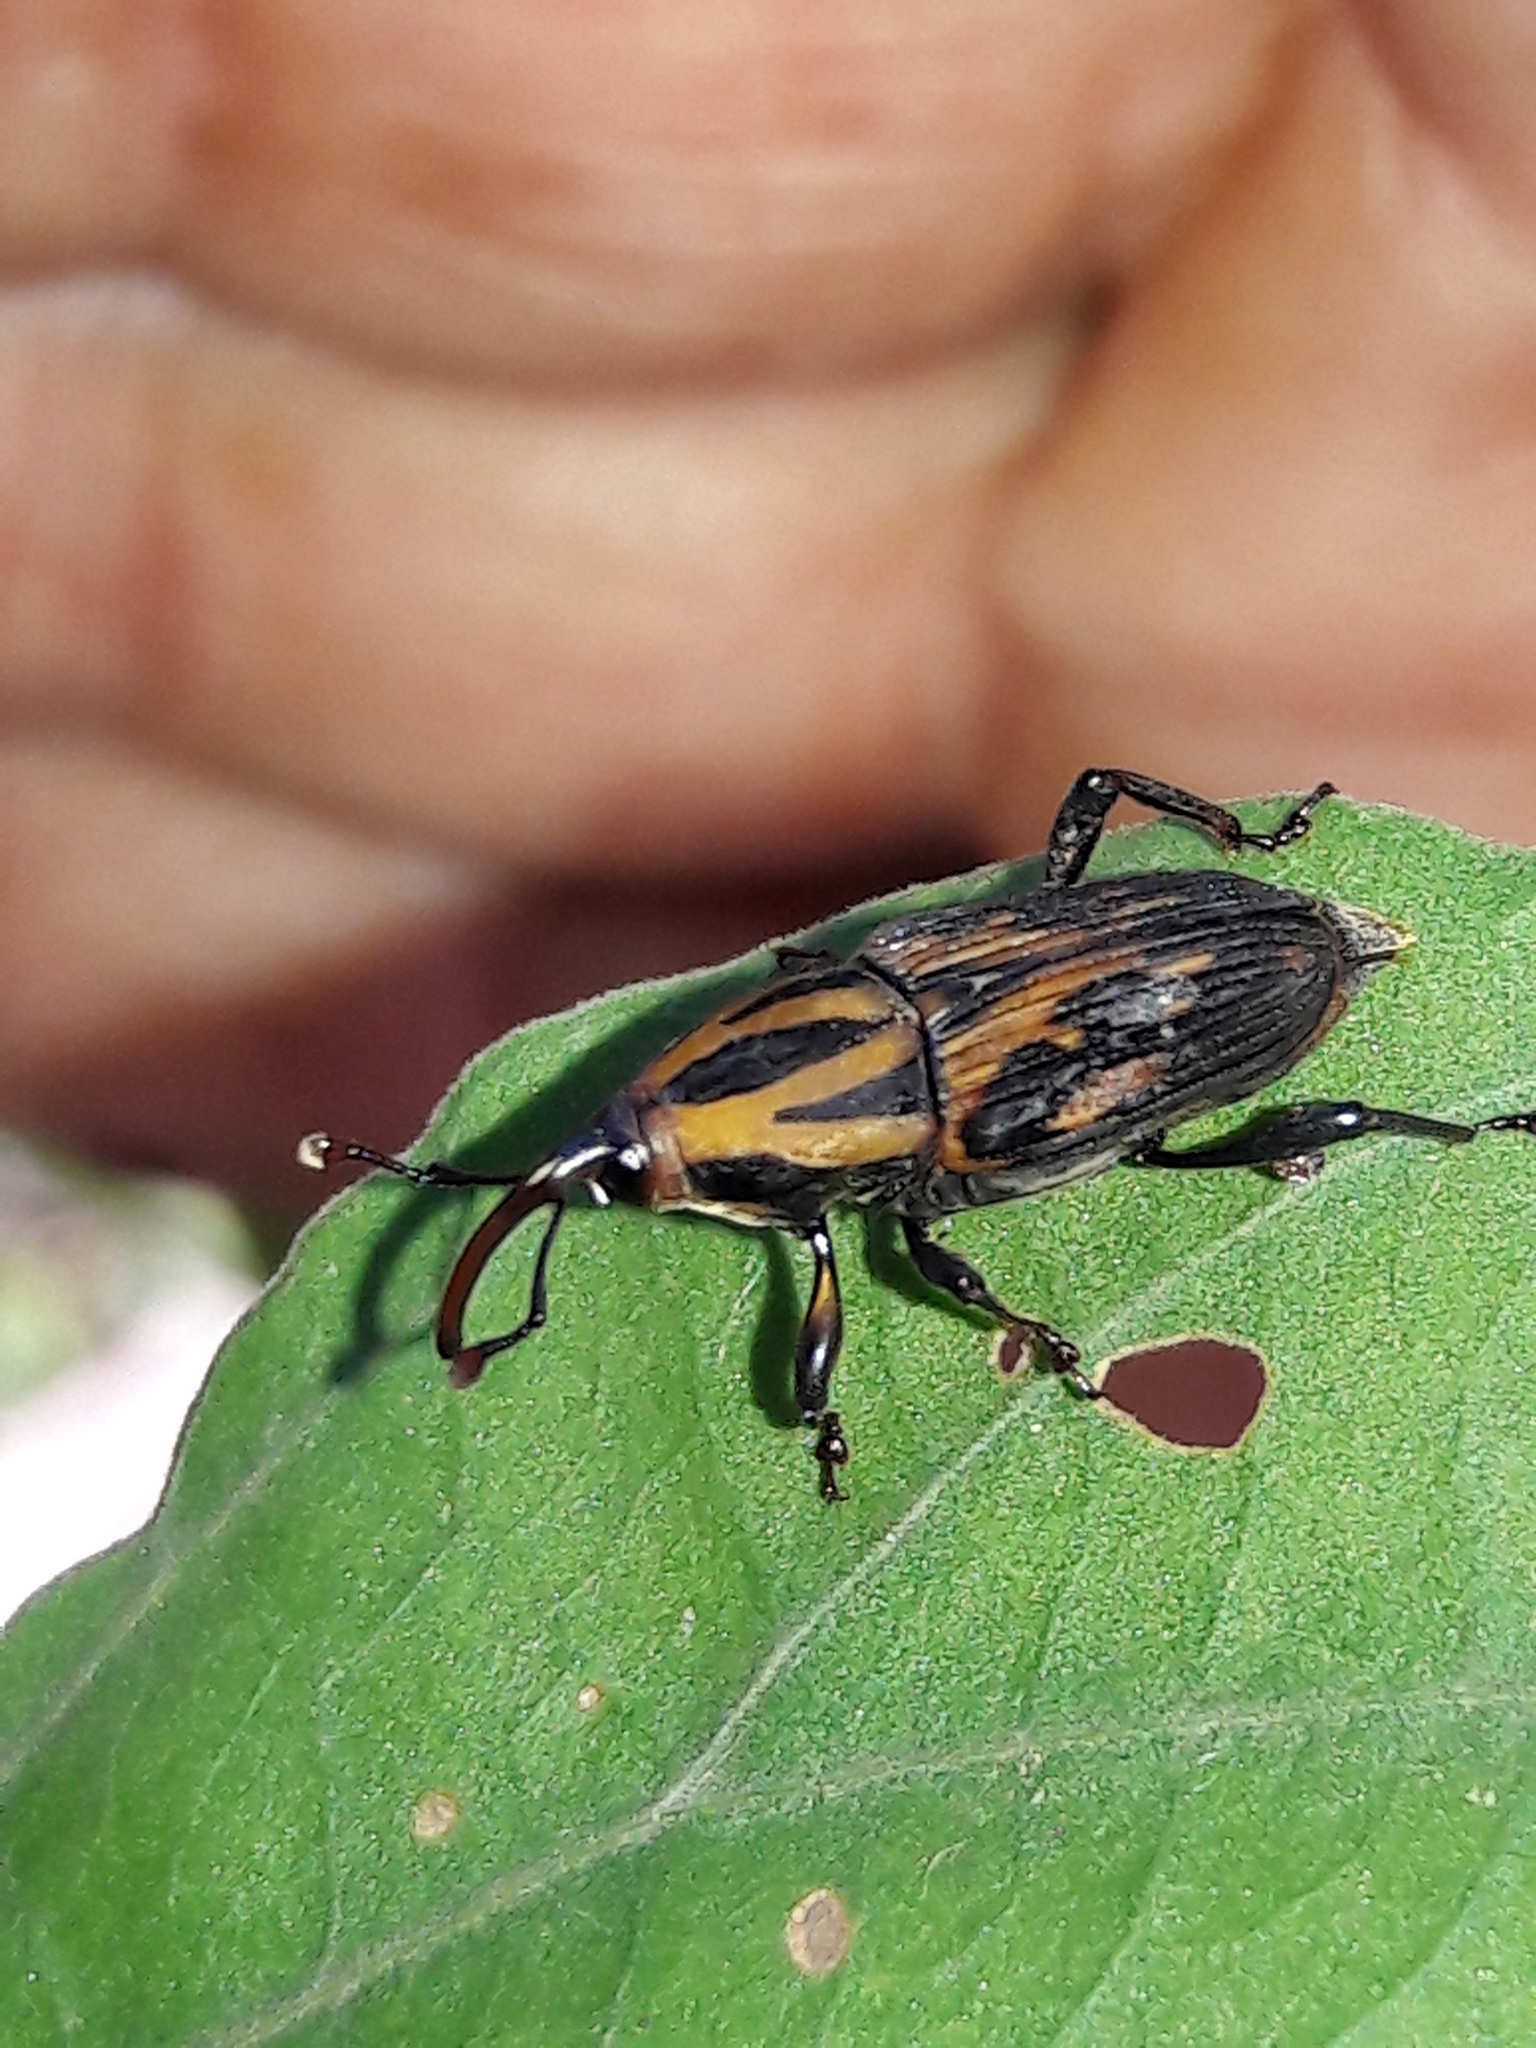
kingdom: Animalia
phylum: Arthropoda
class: Insecta
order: Coleoptera
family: Dryophthoridae
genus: Metamasius
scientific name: Metamasius hemipterus
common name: Weevil
